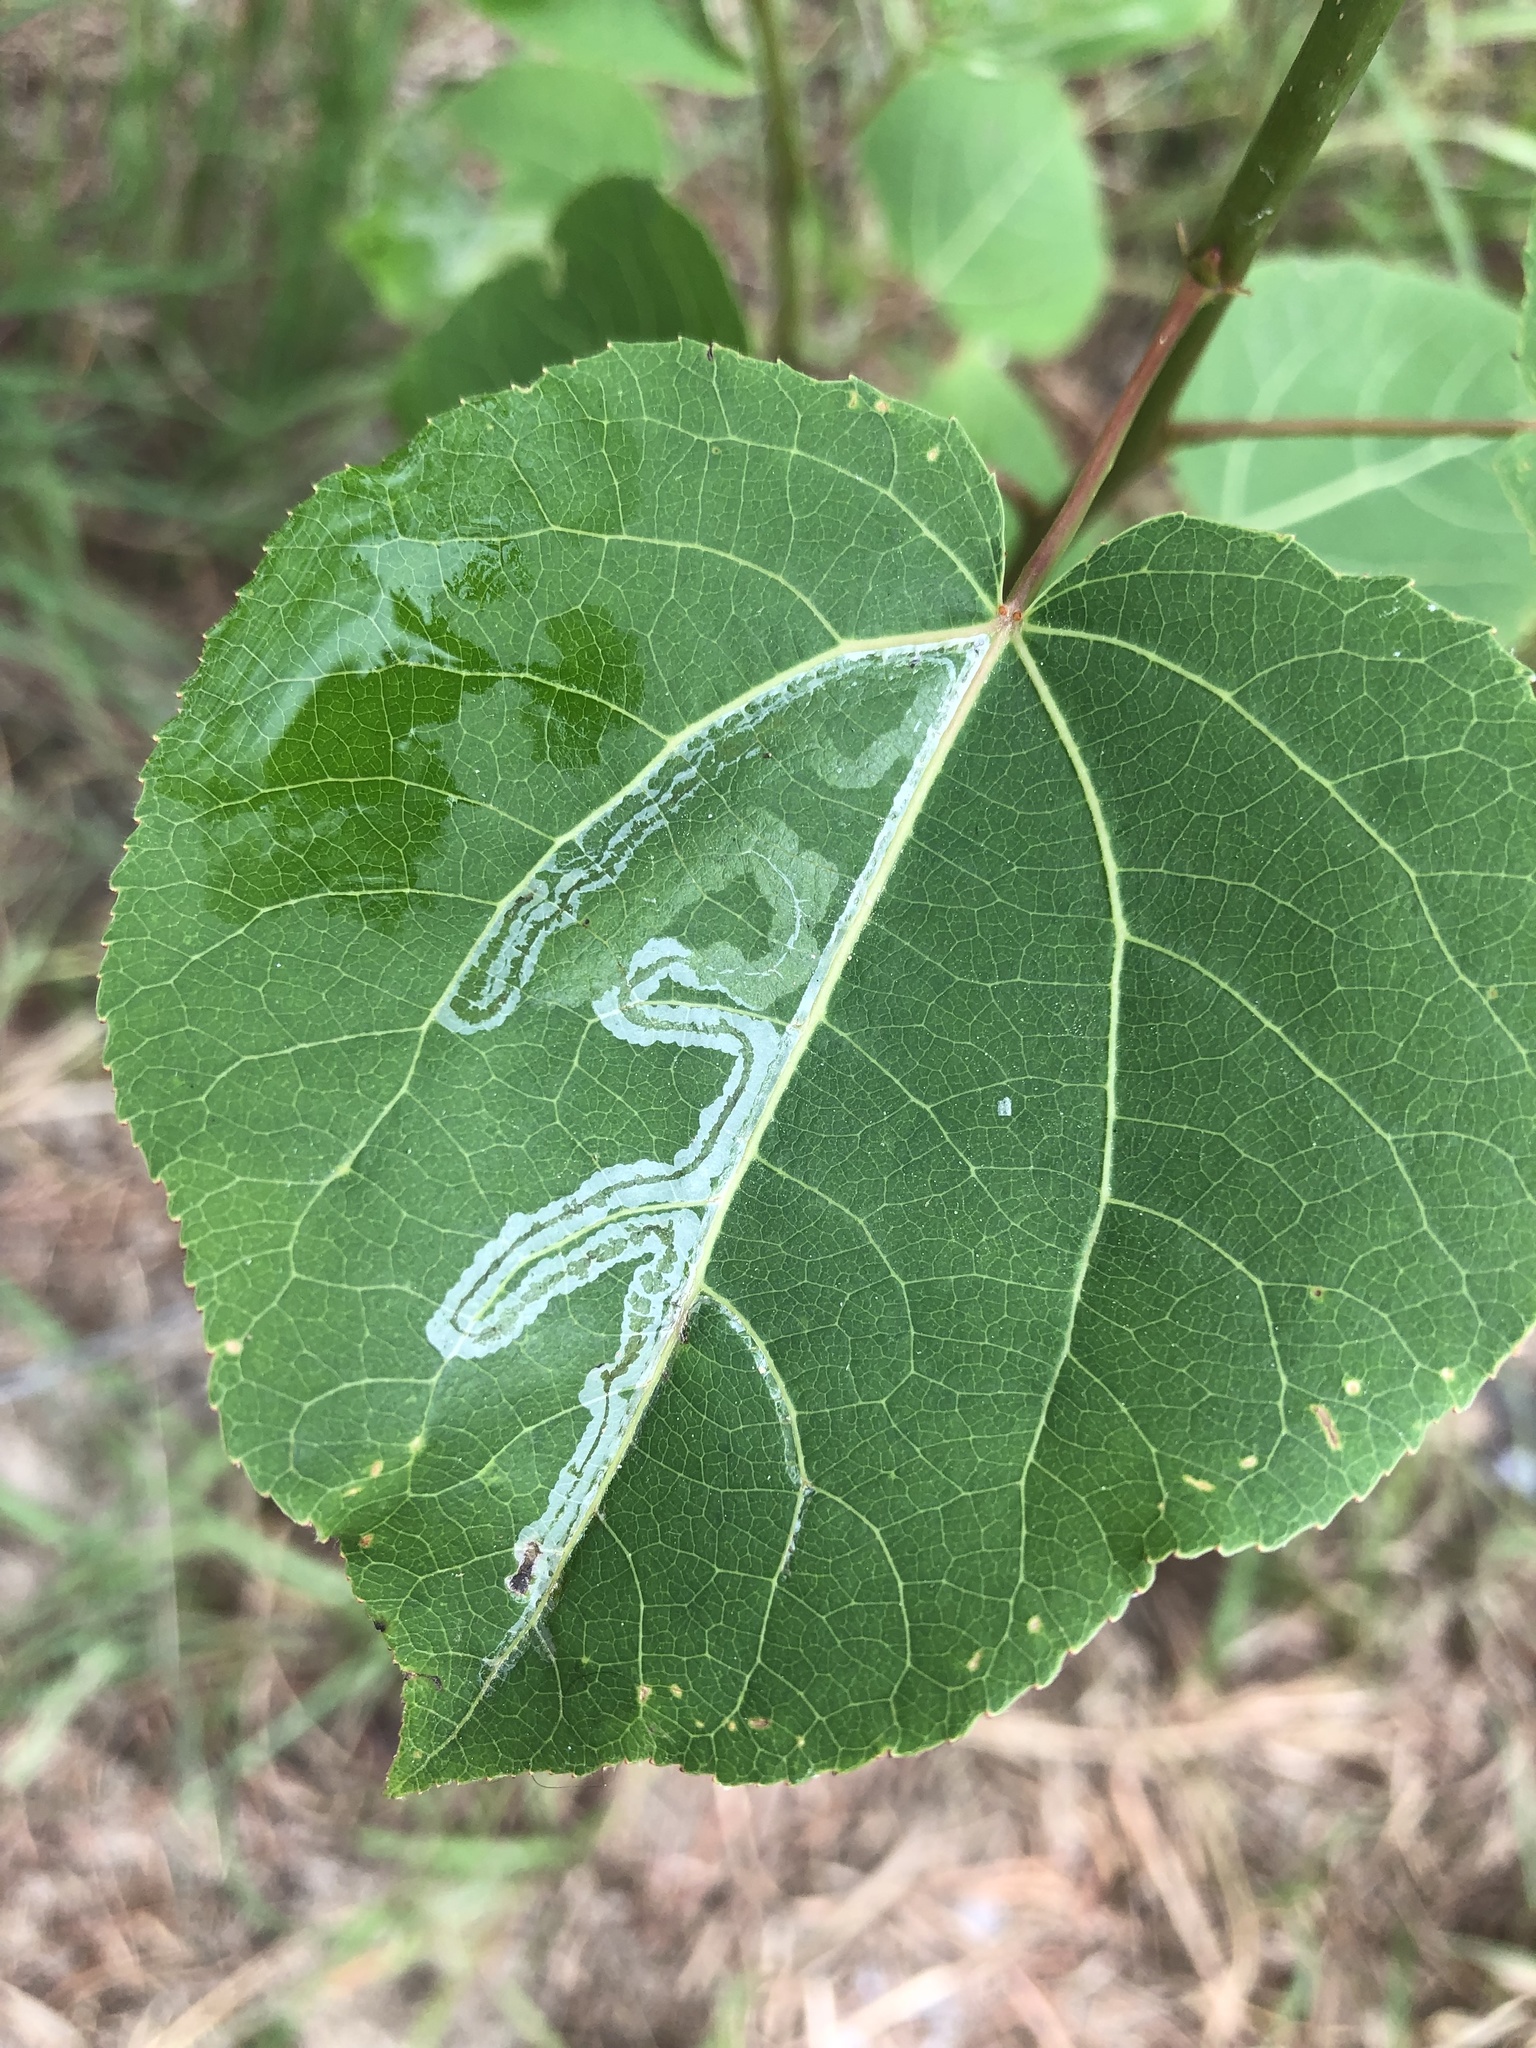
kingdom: Animalia
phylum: Arthropoda
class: Insecta
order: Lepidoptera
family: Gracillariidae
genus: Phyllocnistis
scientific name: Phyllocnistis populiella
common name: Aspen serpentine leafminer moth
